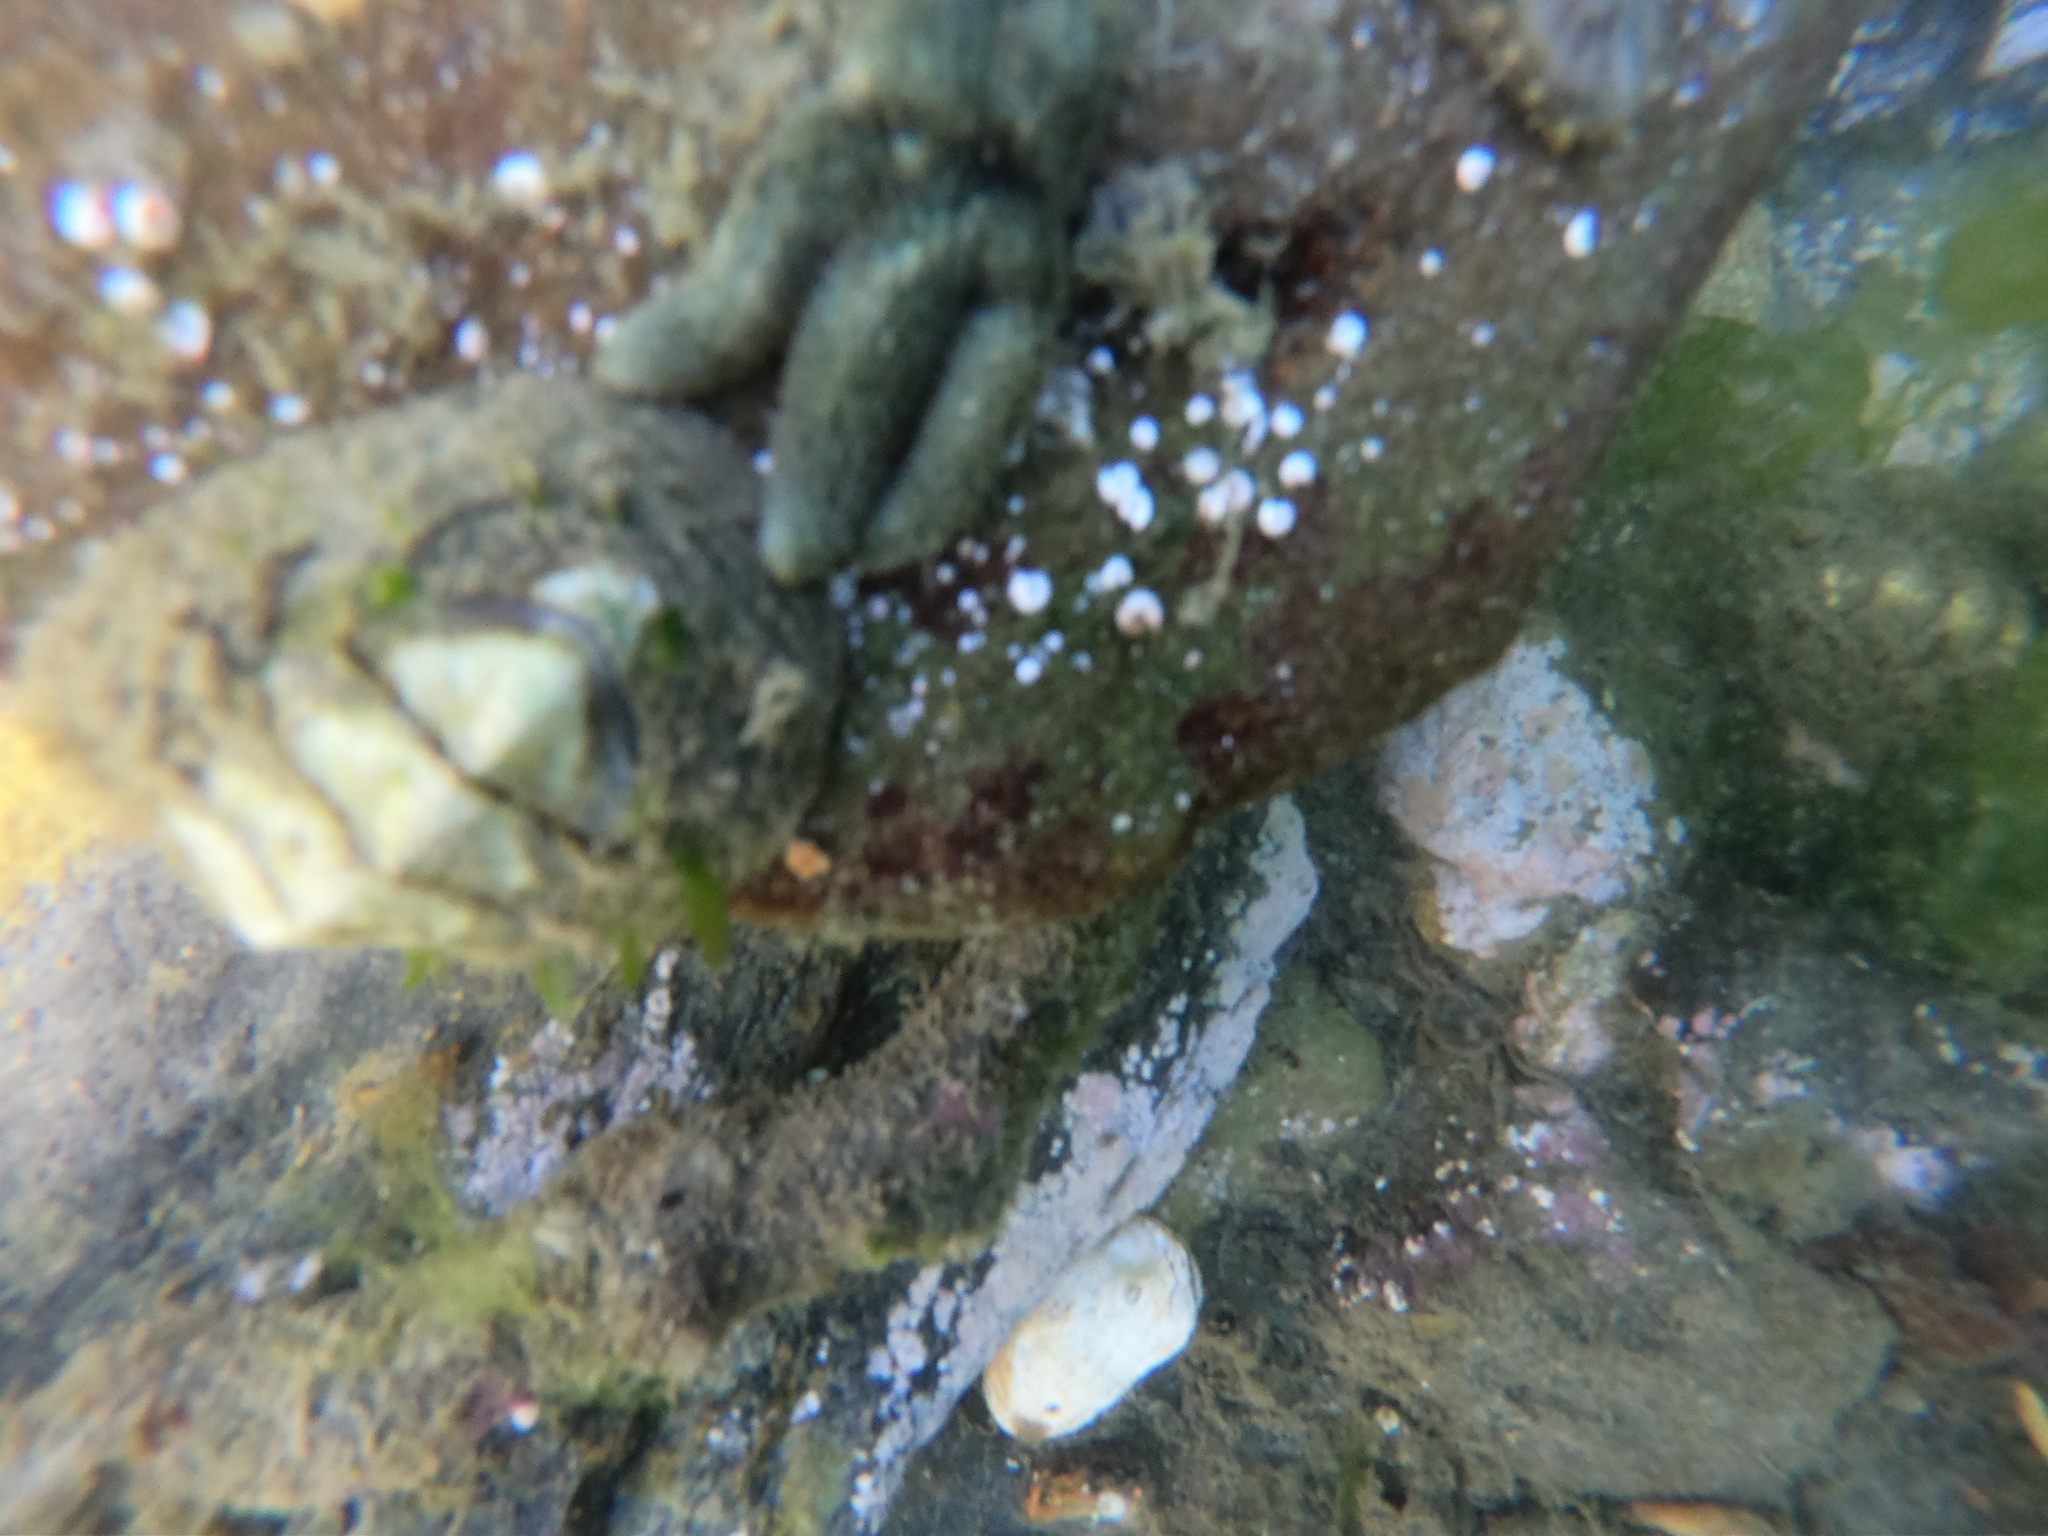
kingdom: Animalia
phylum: Echinodermata
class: Asteroidea
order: Forcipulatida
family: Asteriidae
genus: Anasterias
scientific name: Anasterias antarctica
